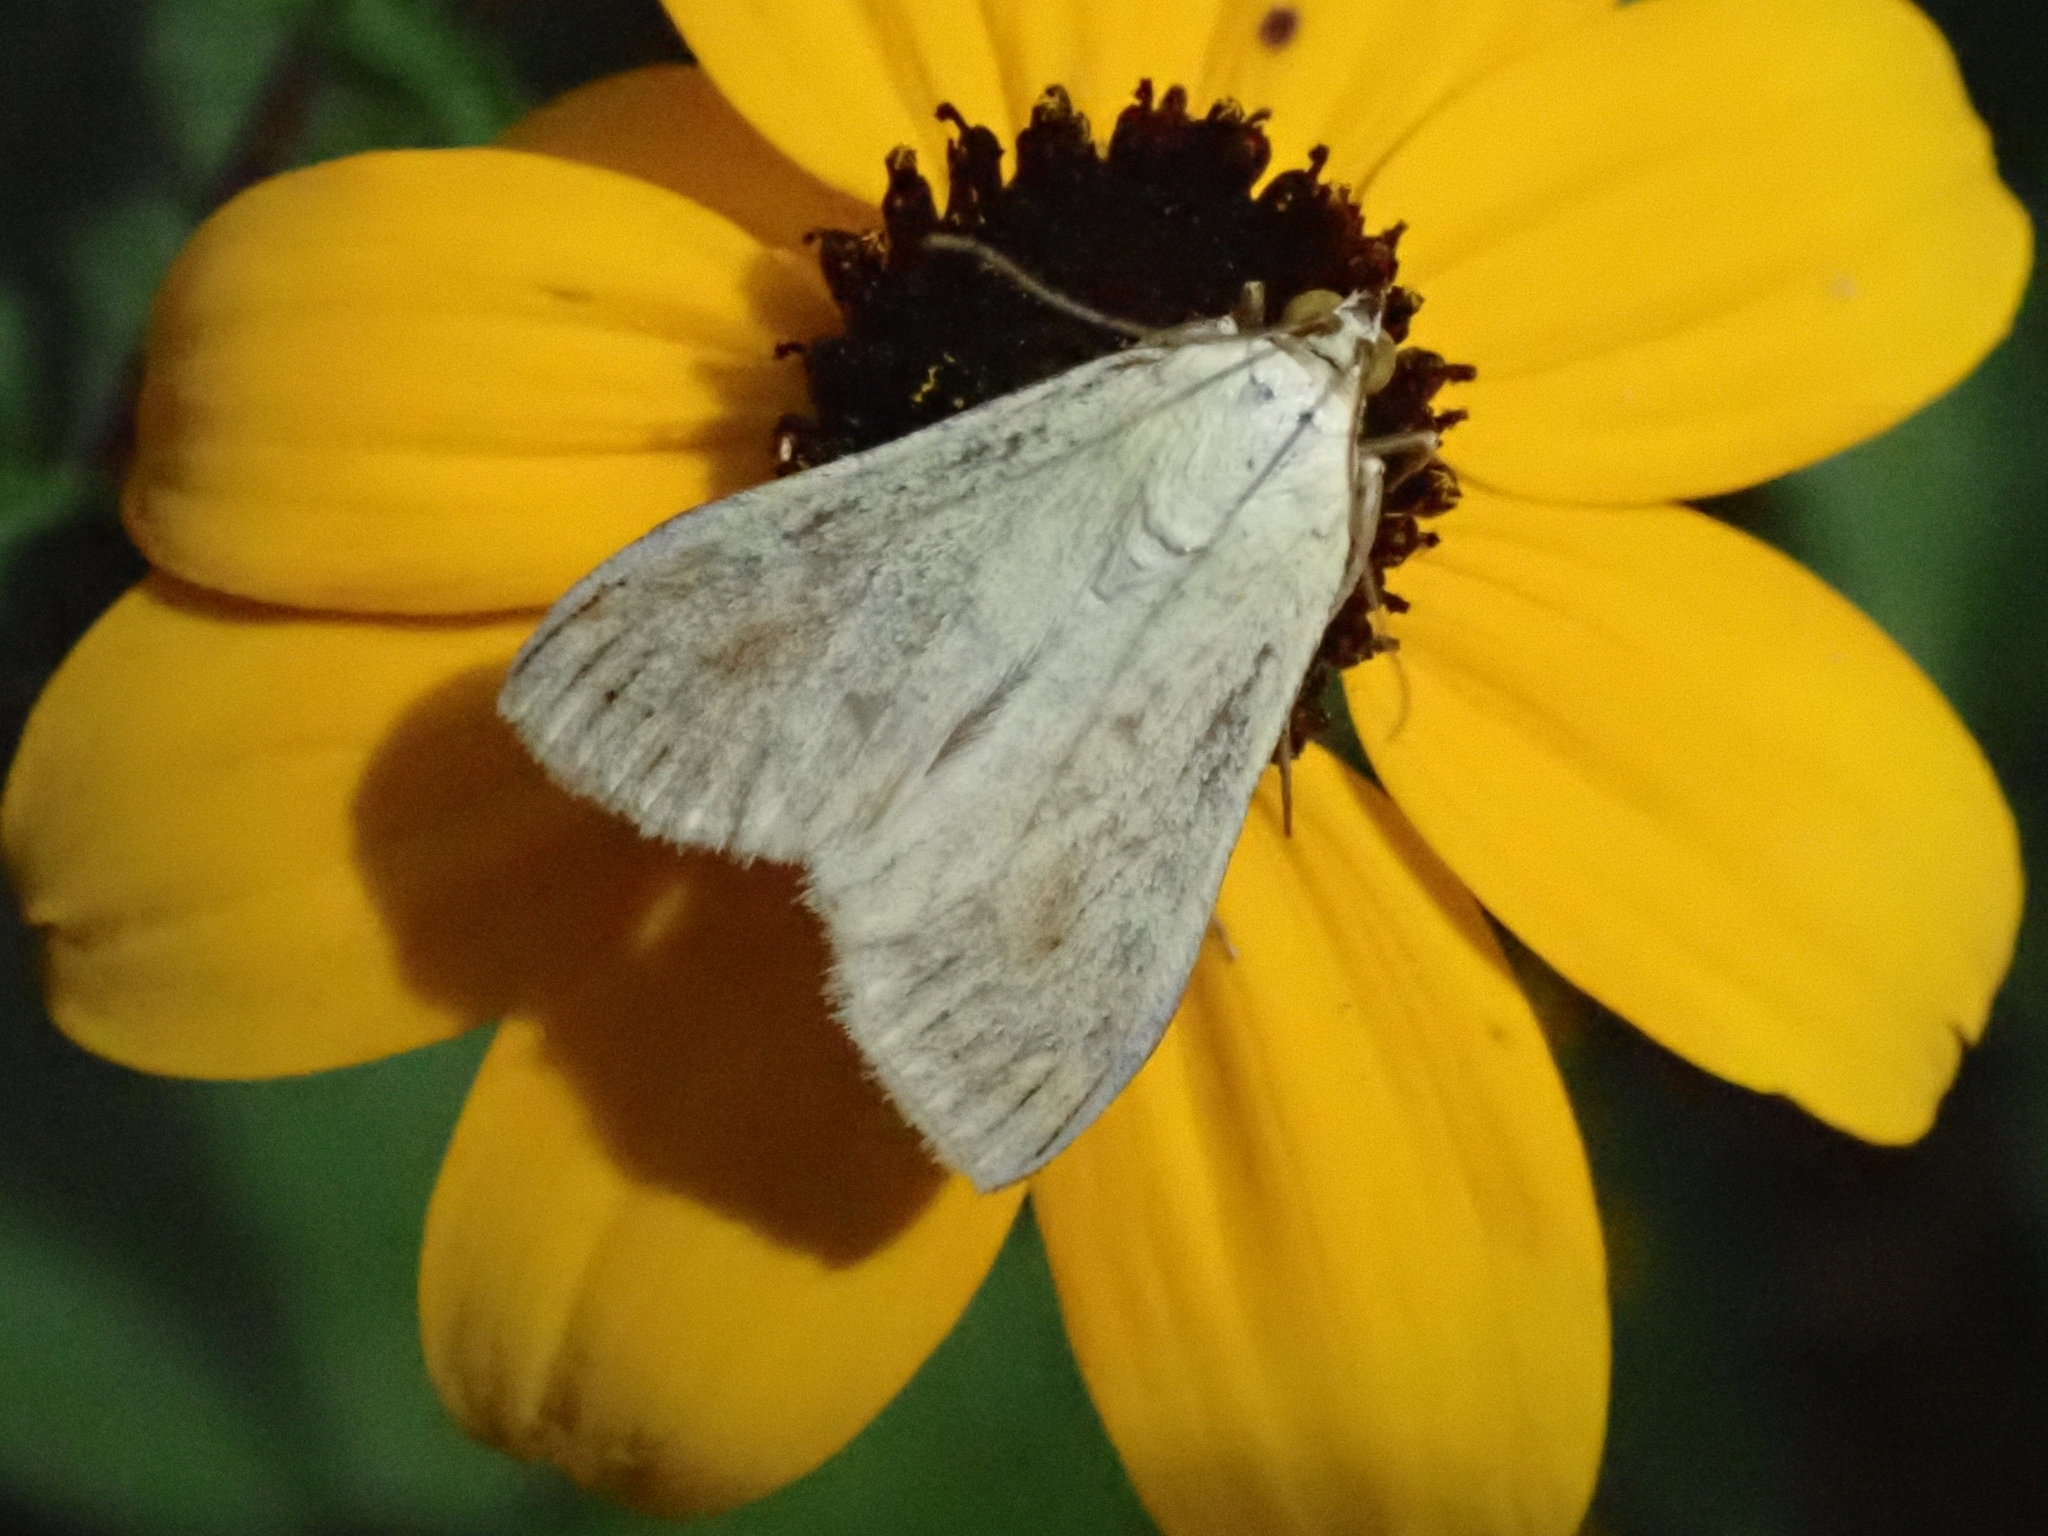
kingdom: Animalia
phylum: Arthropoda
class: Insecta
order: Lepidoptera
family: Crambidae
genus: Sitochroa
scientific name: Sitochroa palealis
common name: Greenish-yellow sitochroa moth
